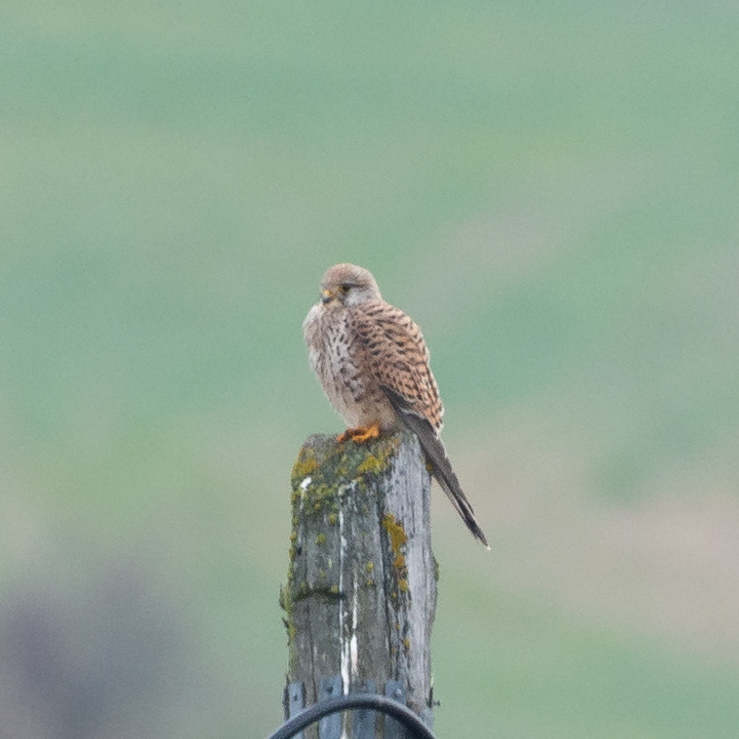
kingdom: Animalia
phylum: Chordata
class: Aves
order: Falconiformes
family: Falconidae
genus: Falco
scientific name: Falco tinnunculus
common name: Common kestrel
